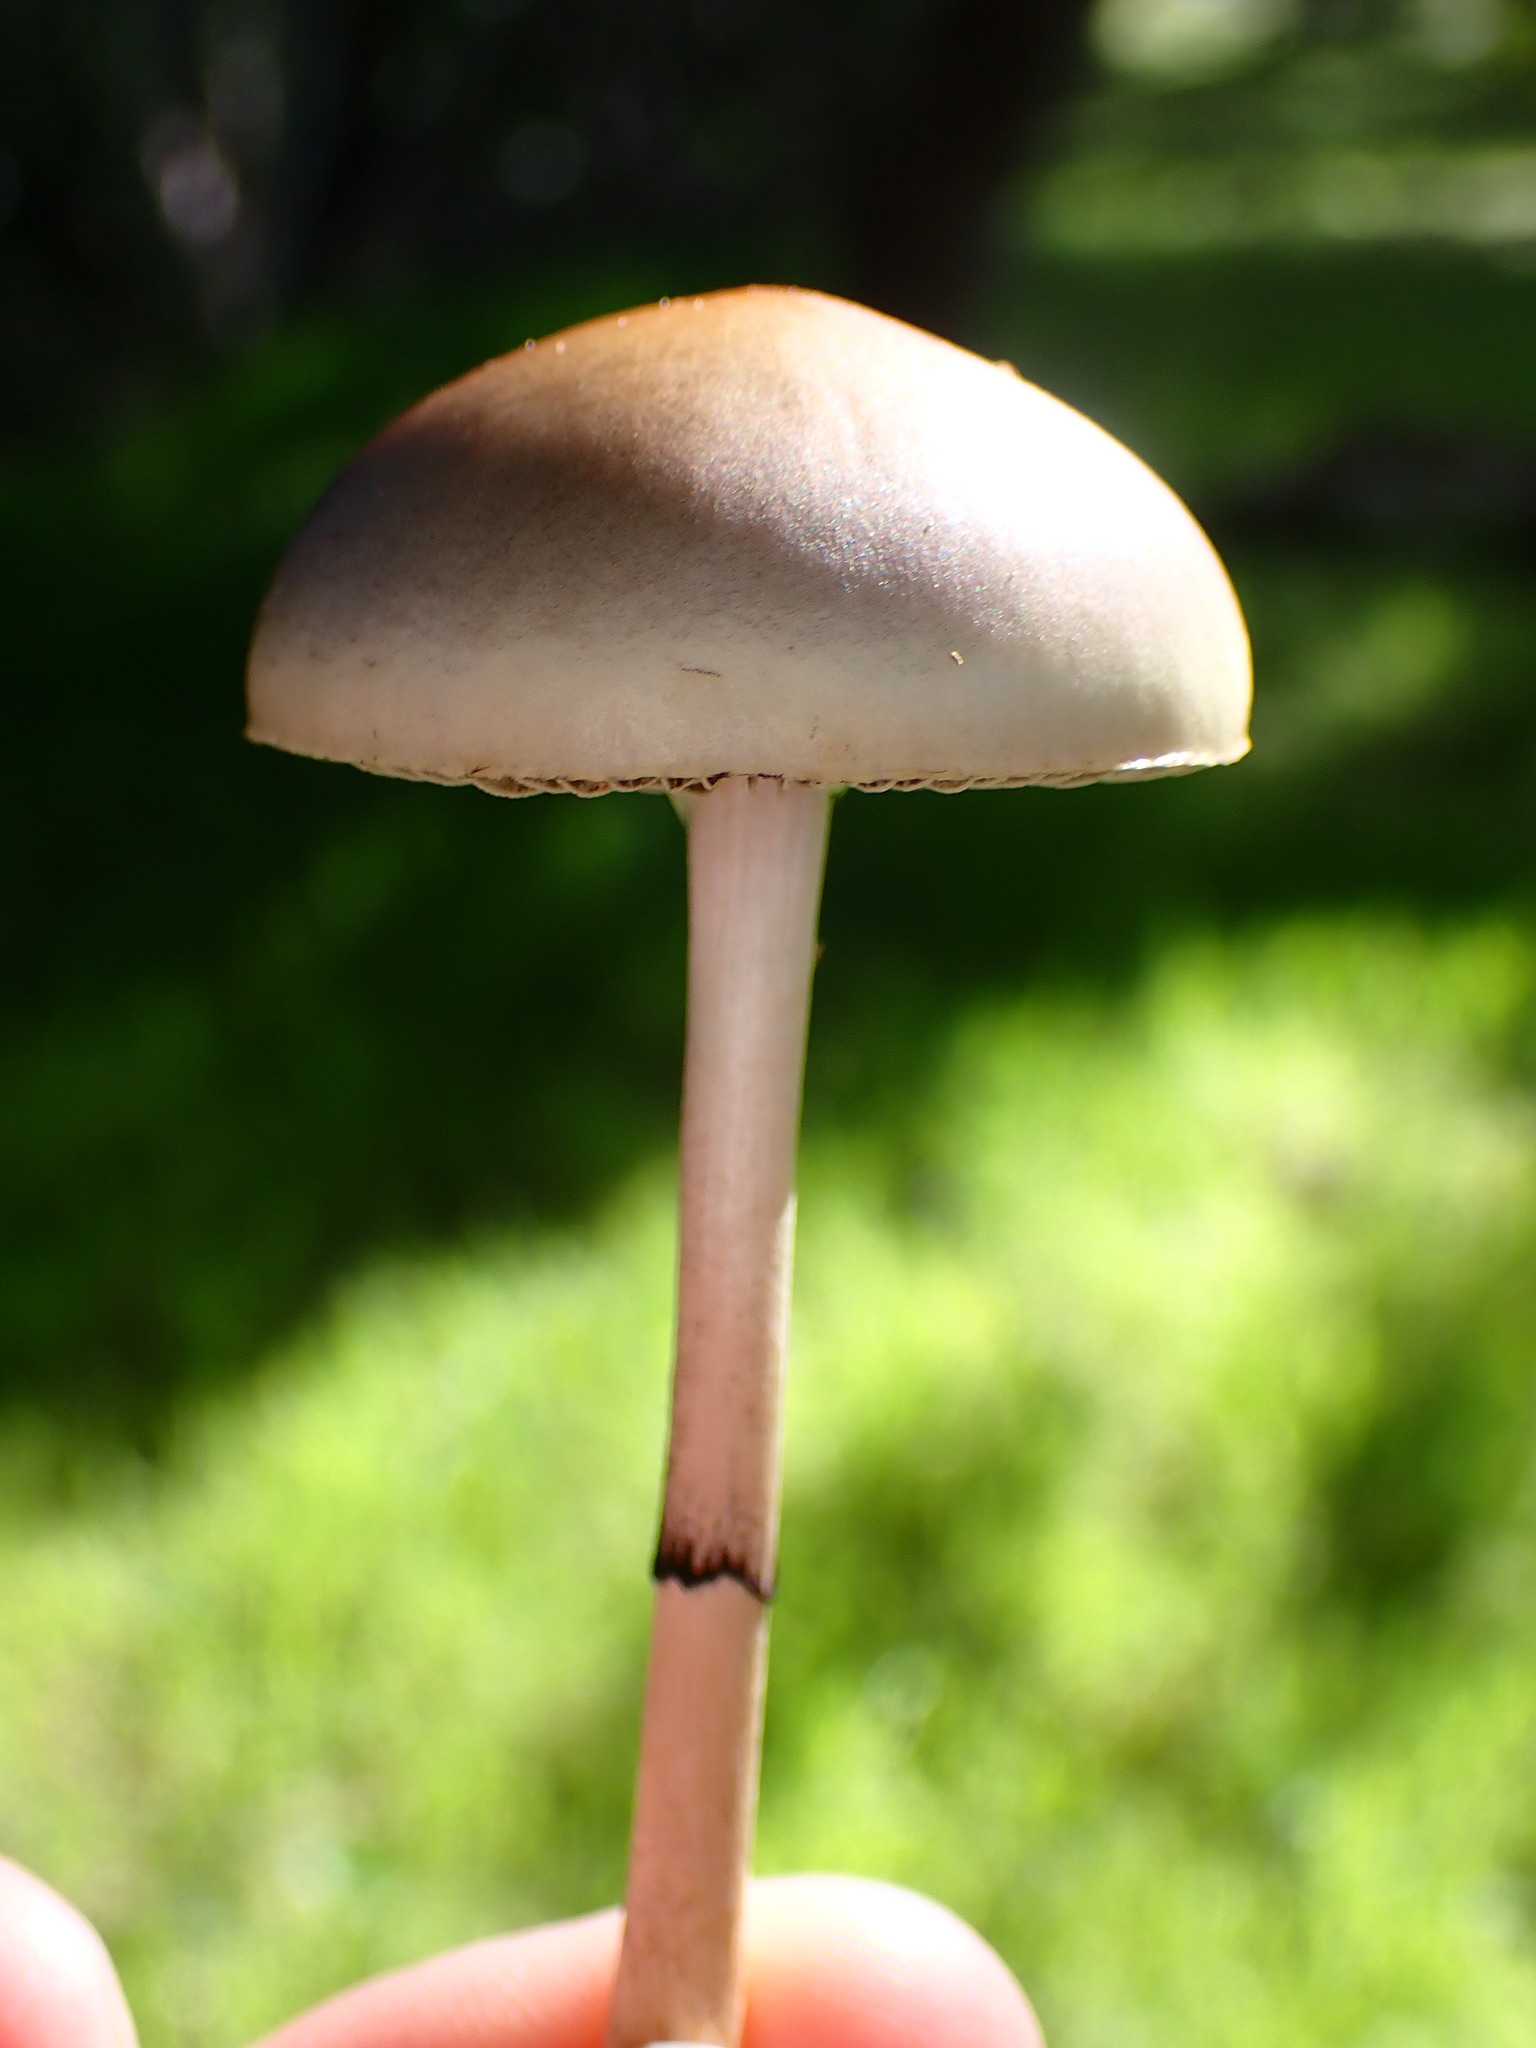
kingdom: Fungi
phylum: Basidiomycota
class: Agaricomycetes
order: Agaricales
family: Strophariaceae
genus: Protostropharia
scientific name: Protostropharia semiglobata
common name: Dung roundhead
